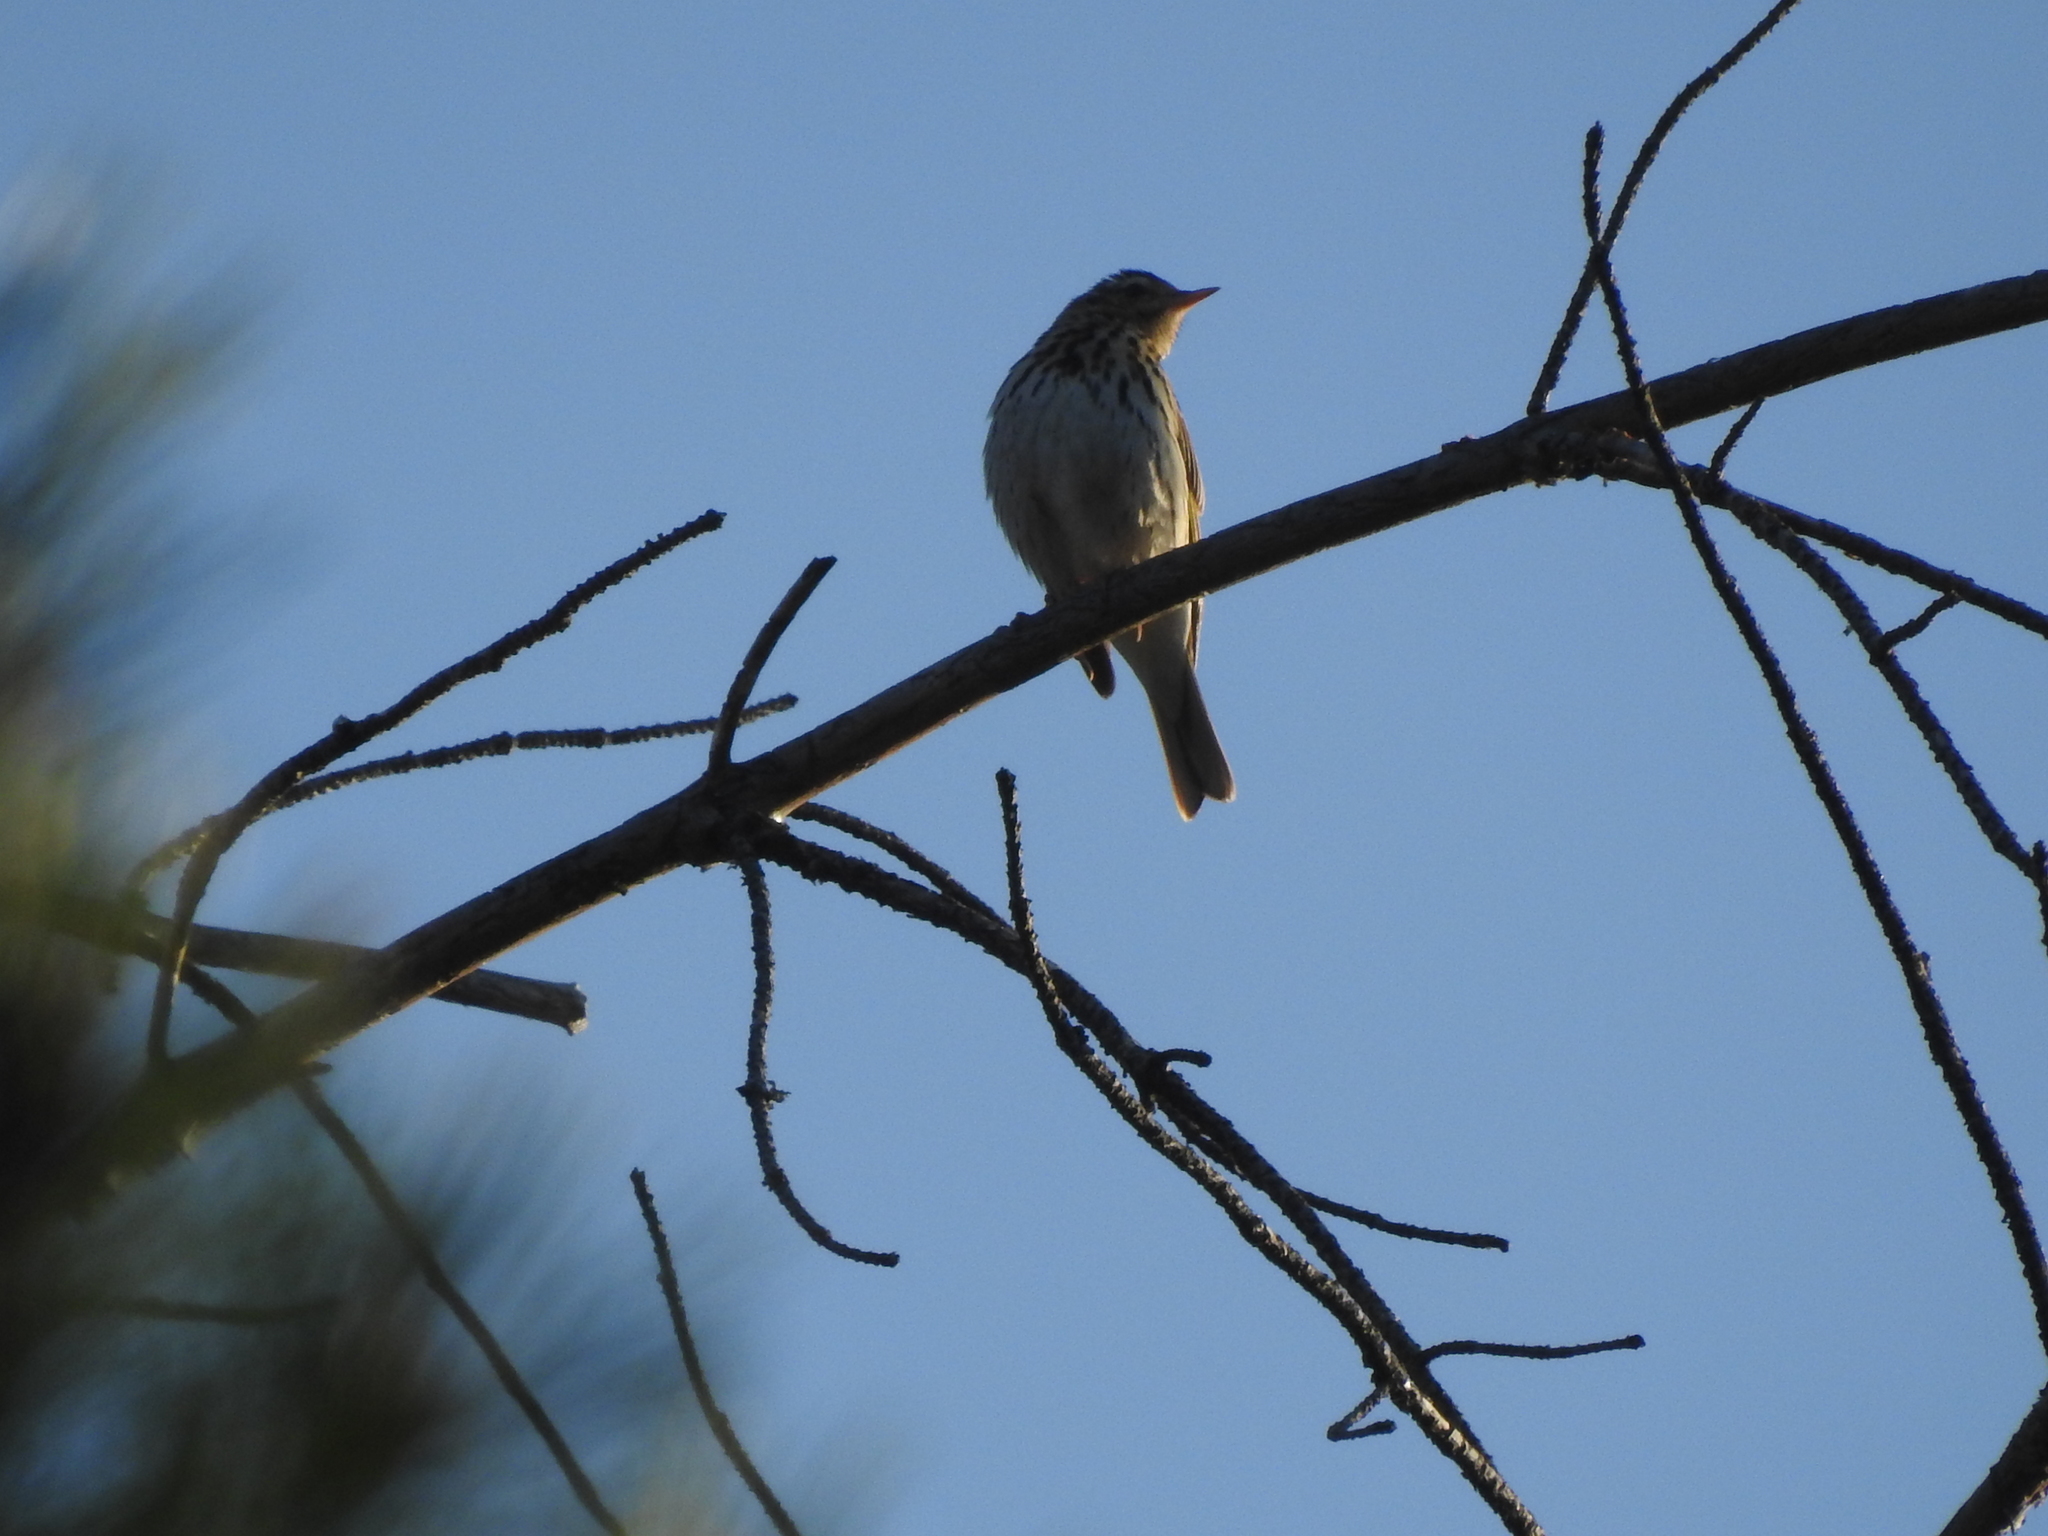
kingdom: Animalia
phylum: Chordata
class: Aves
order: Passeriformes
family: Motacillidae
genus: Anthus
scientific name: Anthus hodgsoni
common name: Olive-backed pipit
